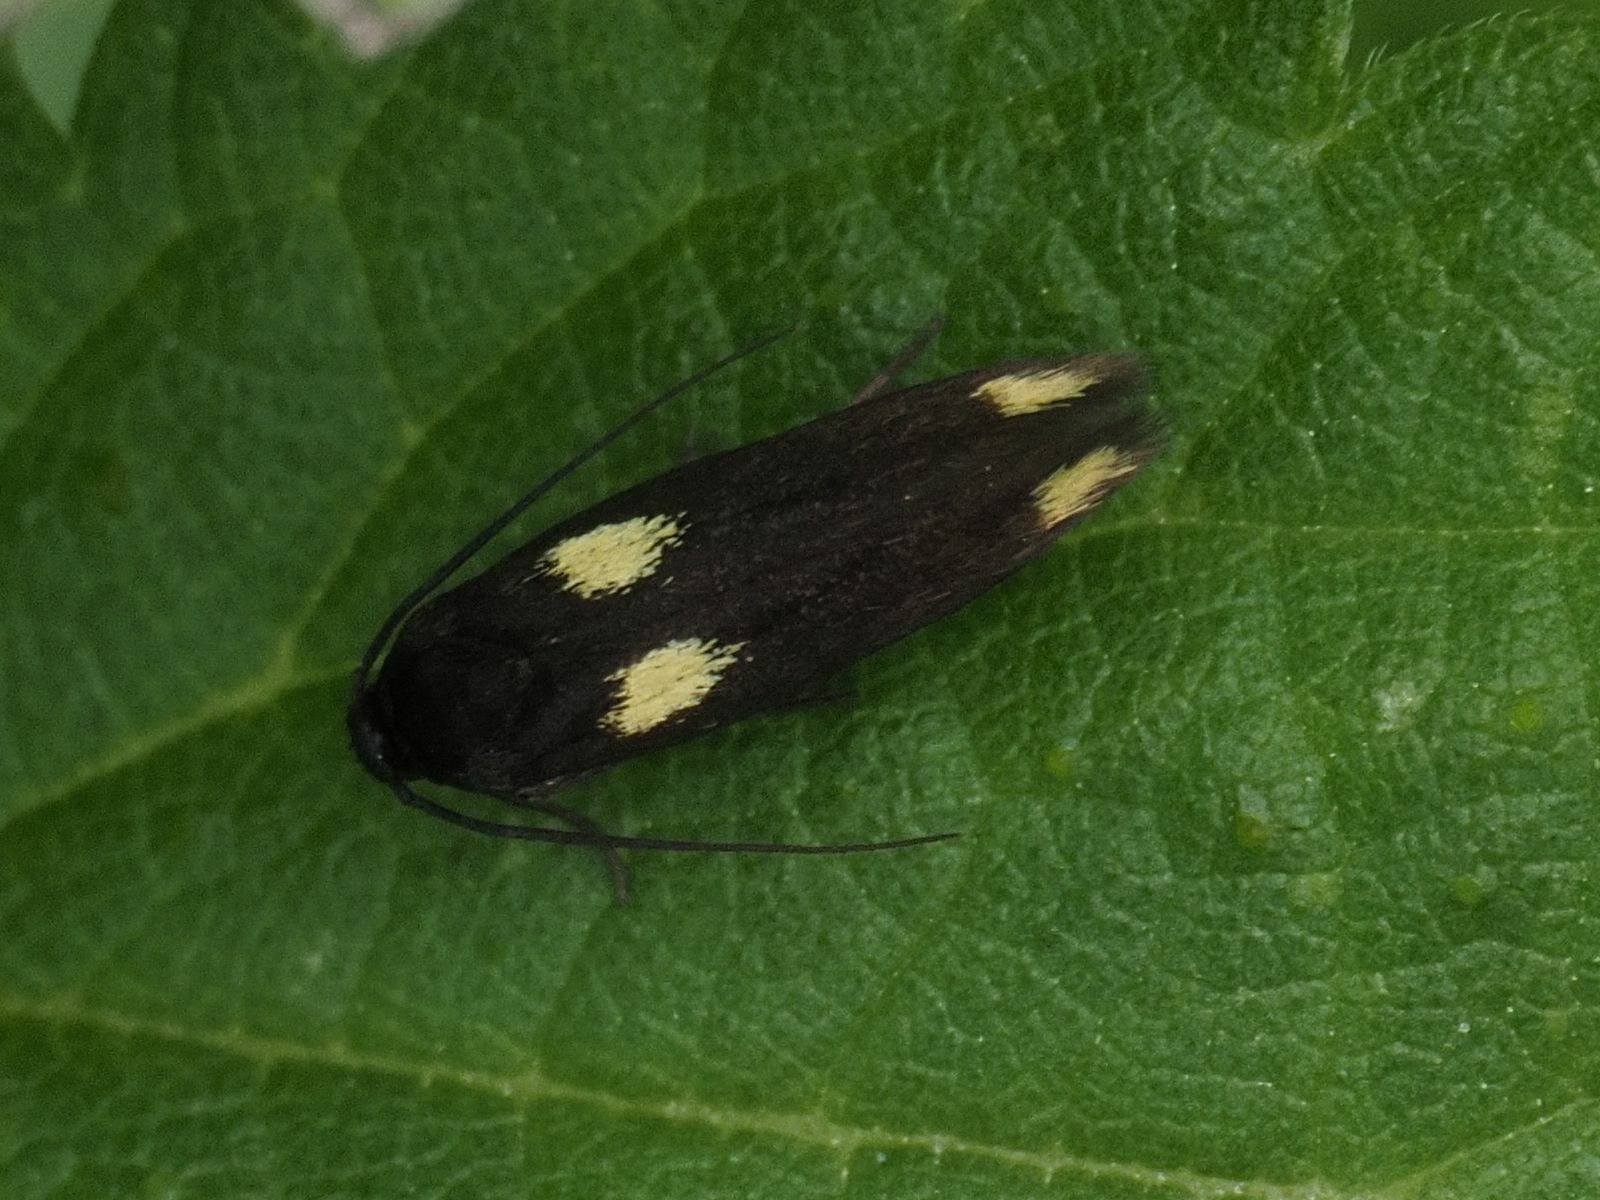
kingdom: Animalia
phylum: Arthropoda
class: Insecta
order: Lepidoptera
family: Scythrididae
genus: Scythris
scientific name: Scythris sinensis
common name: Kentish owlet
